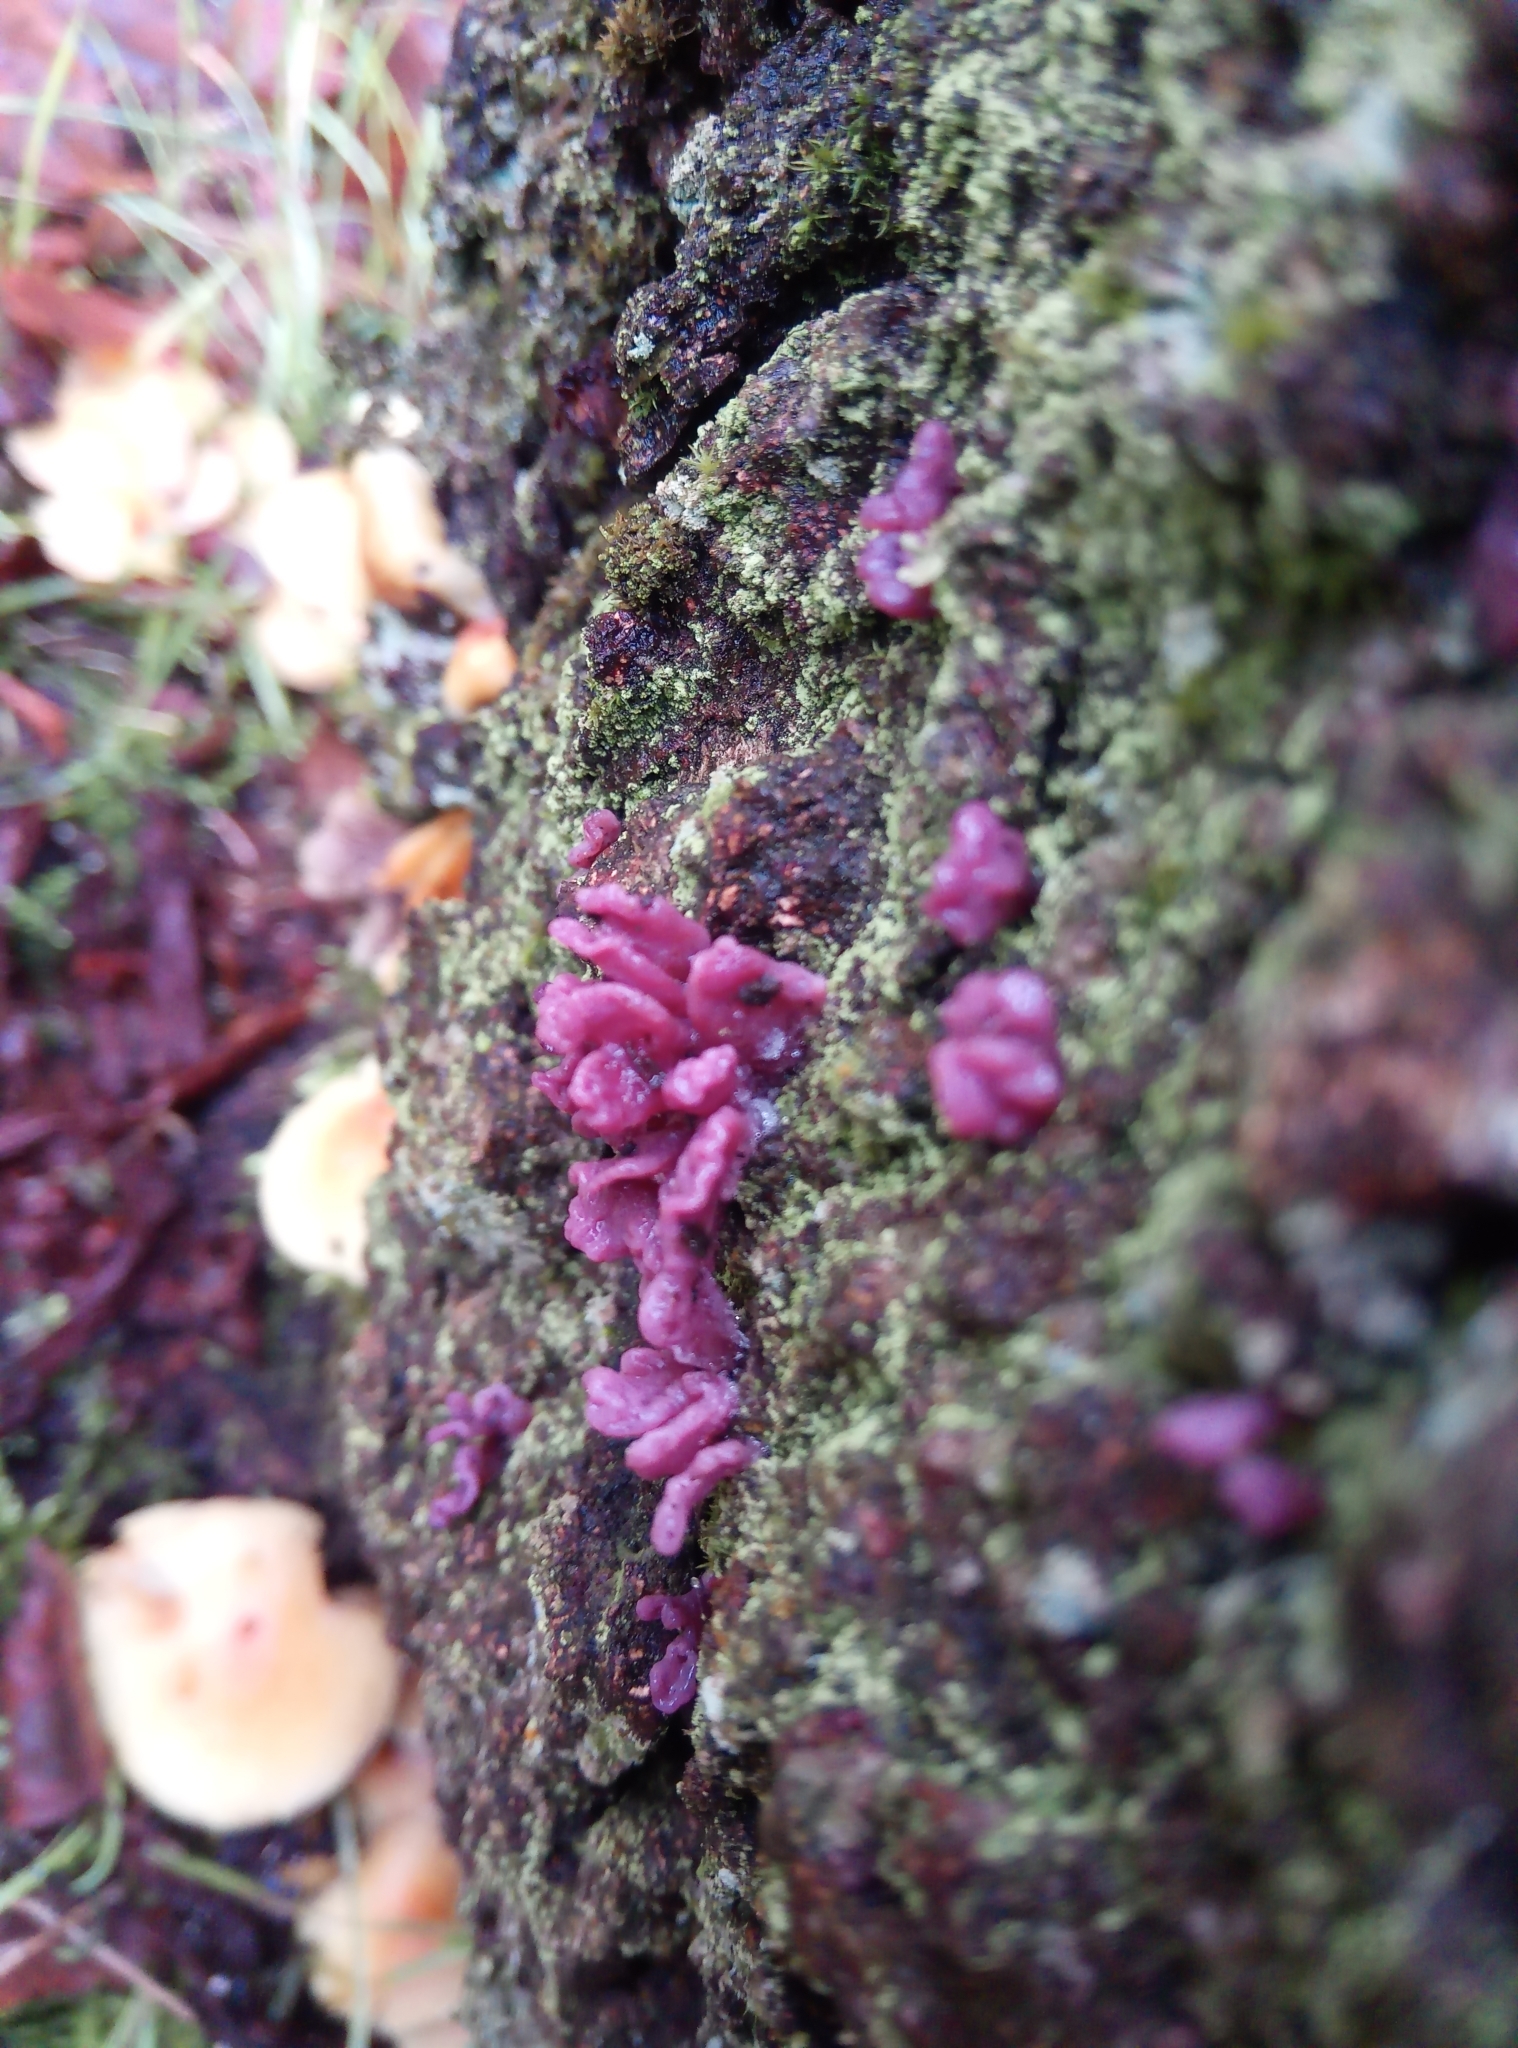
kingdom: Fungi
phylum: Ascomycota
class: Leotiomycetes
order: Helotiales
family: Gelatinodiscaceae
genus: Ascocoryne
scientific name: Ascocoryne sarcoides
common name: Purple jellydisc
